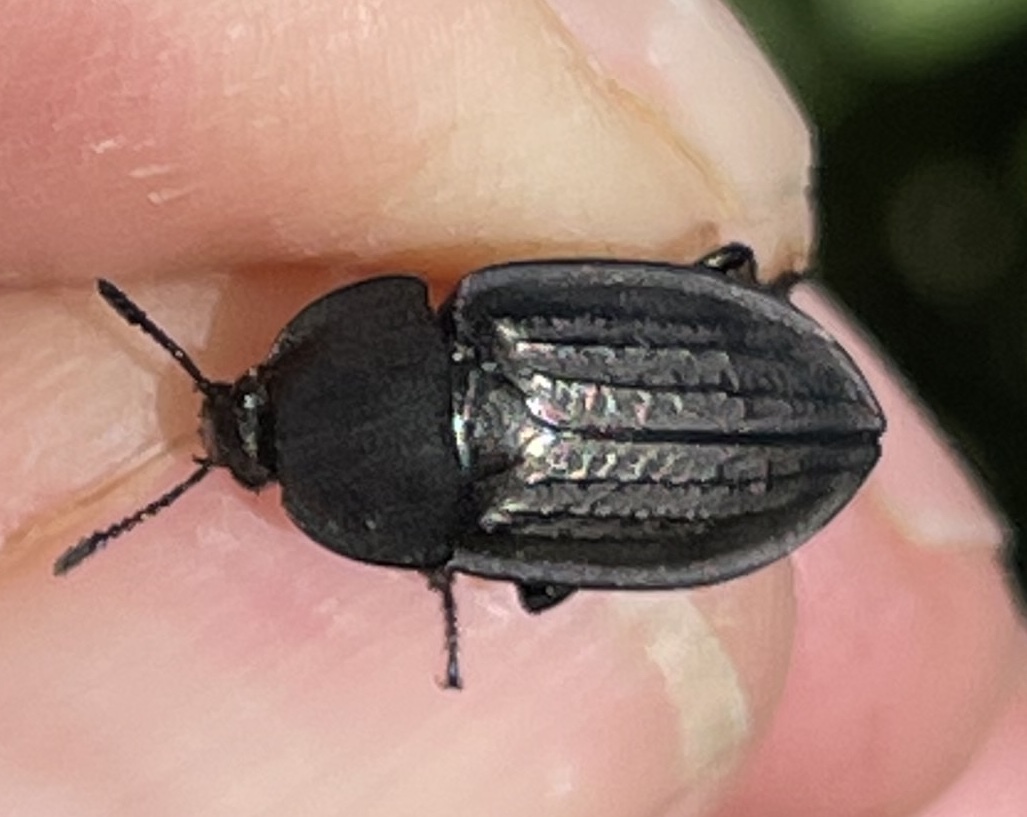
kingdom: Animalia
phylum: Arthropoda
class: Insecta
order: Coleoptera
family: Staphylinidae
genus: Heterosilpha
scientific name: Heterosilpha ramosa
